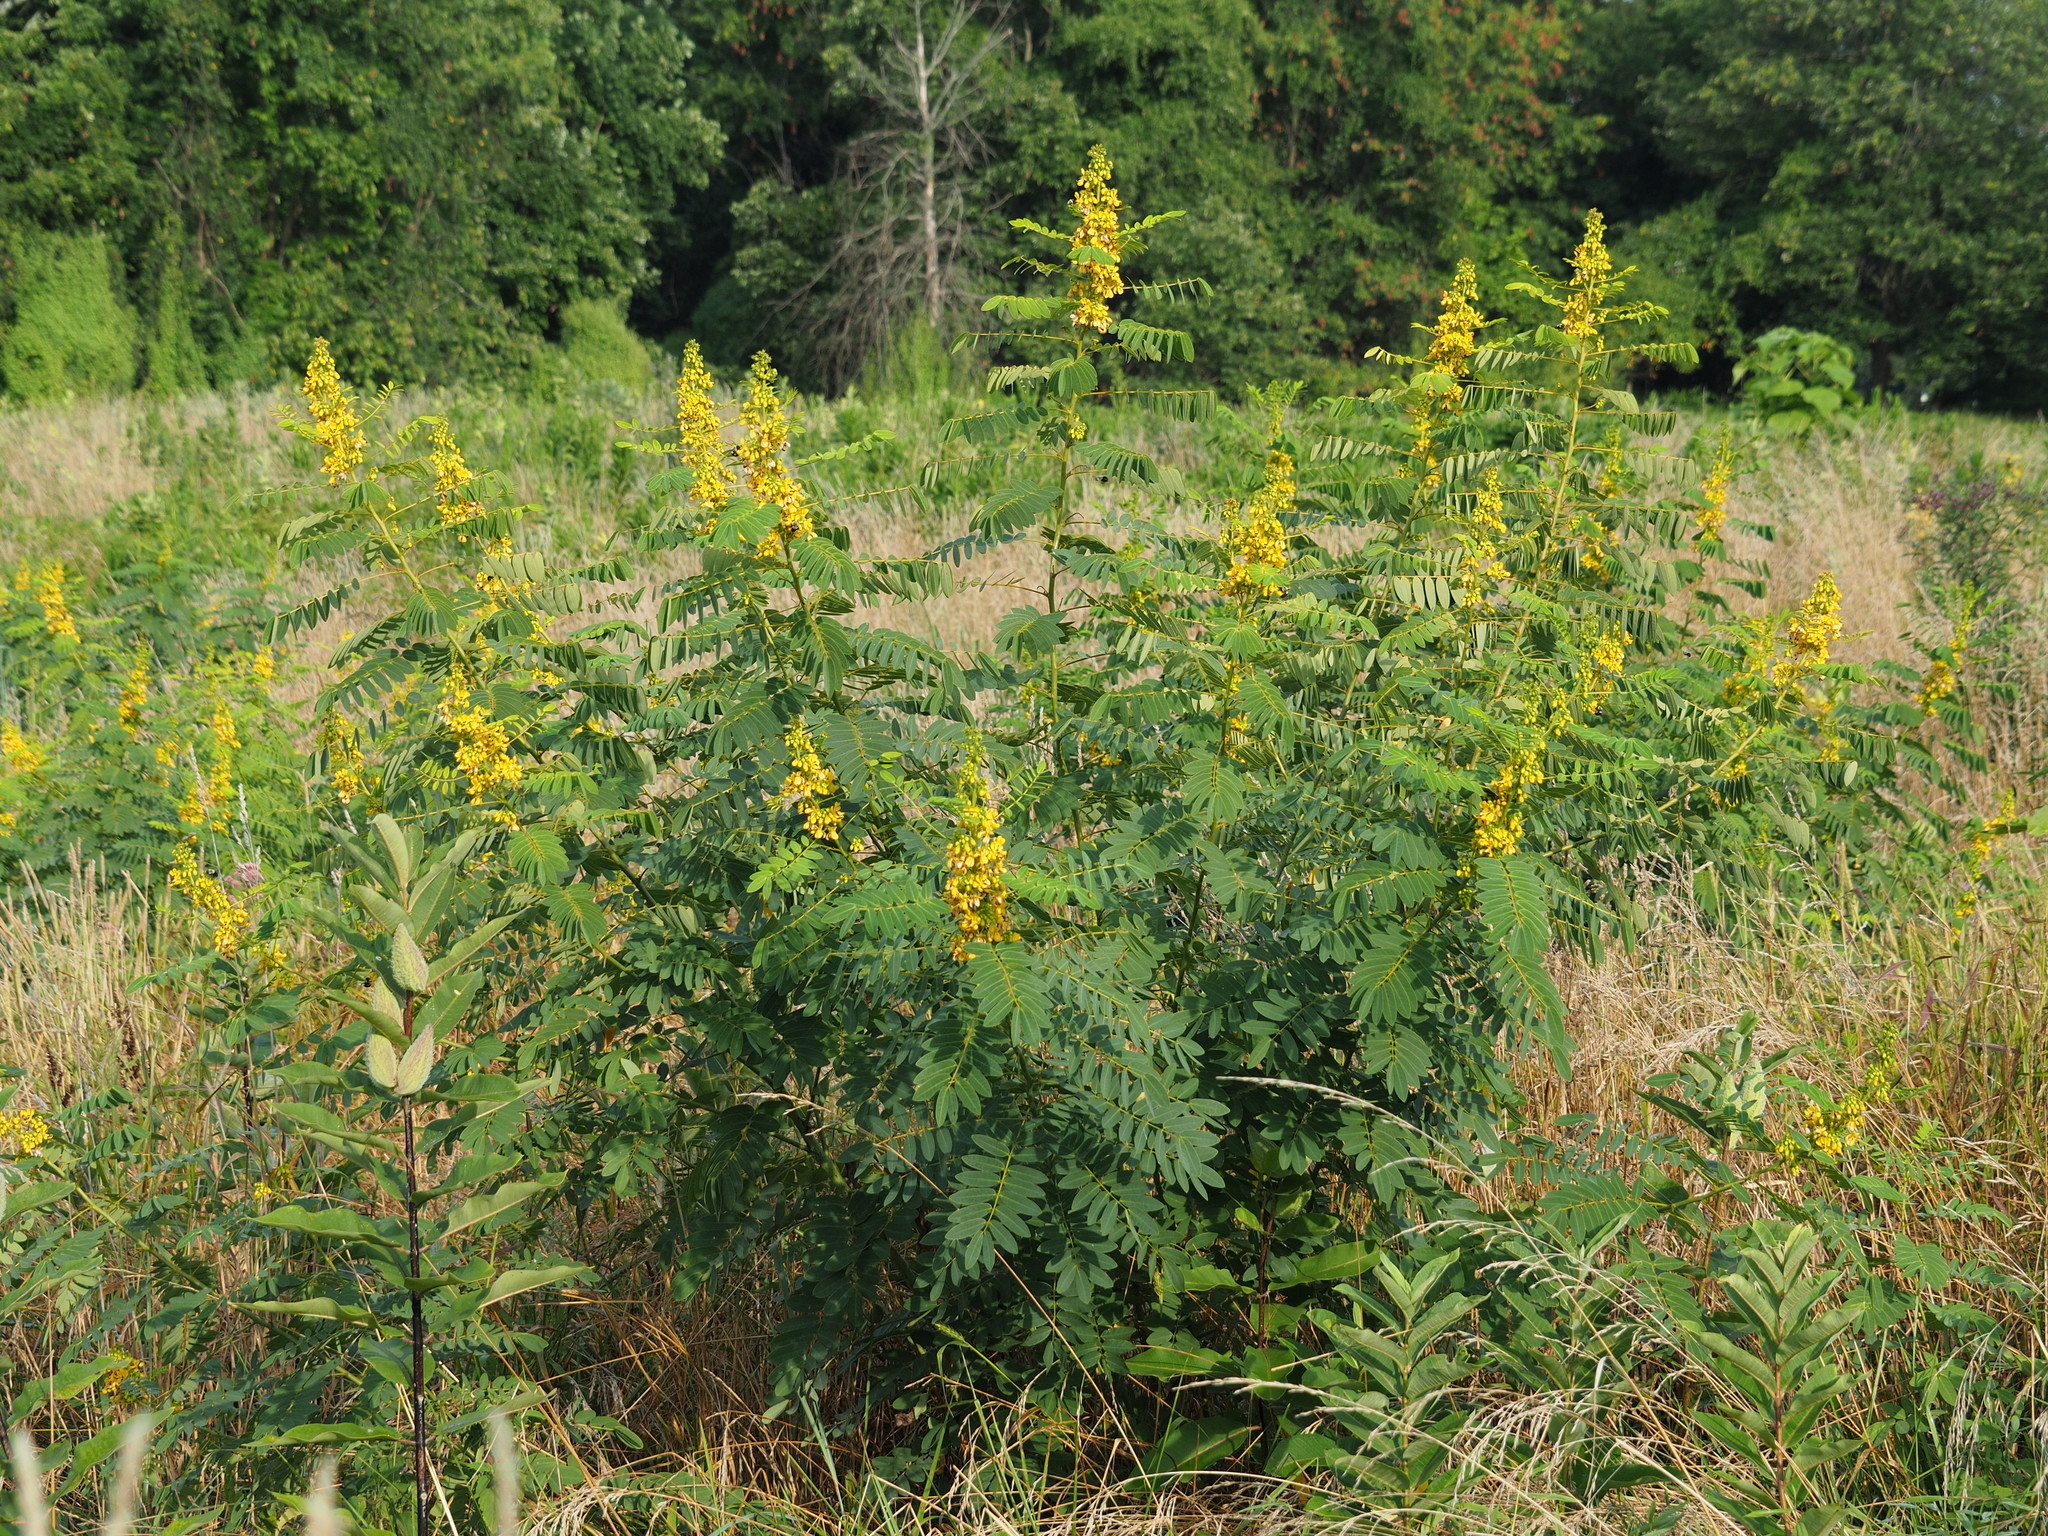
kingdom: Plantae
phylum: Tracheophyta
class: Magnoliopsida
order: Fabales
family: Fabaceae
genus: Senna
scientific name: Senna hebecarpa
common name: Wild senna
